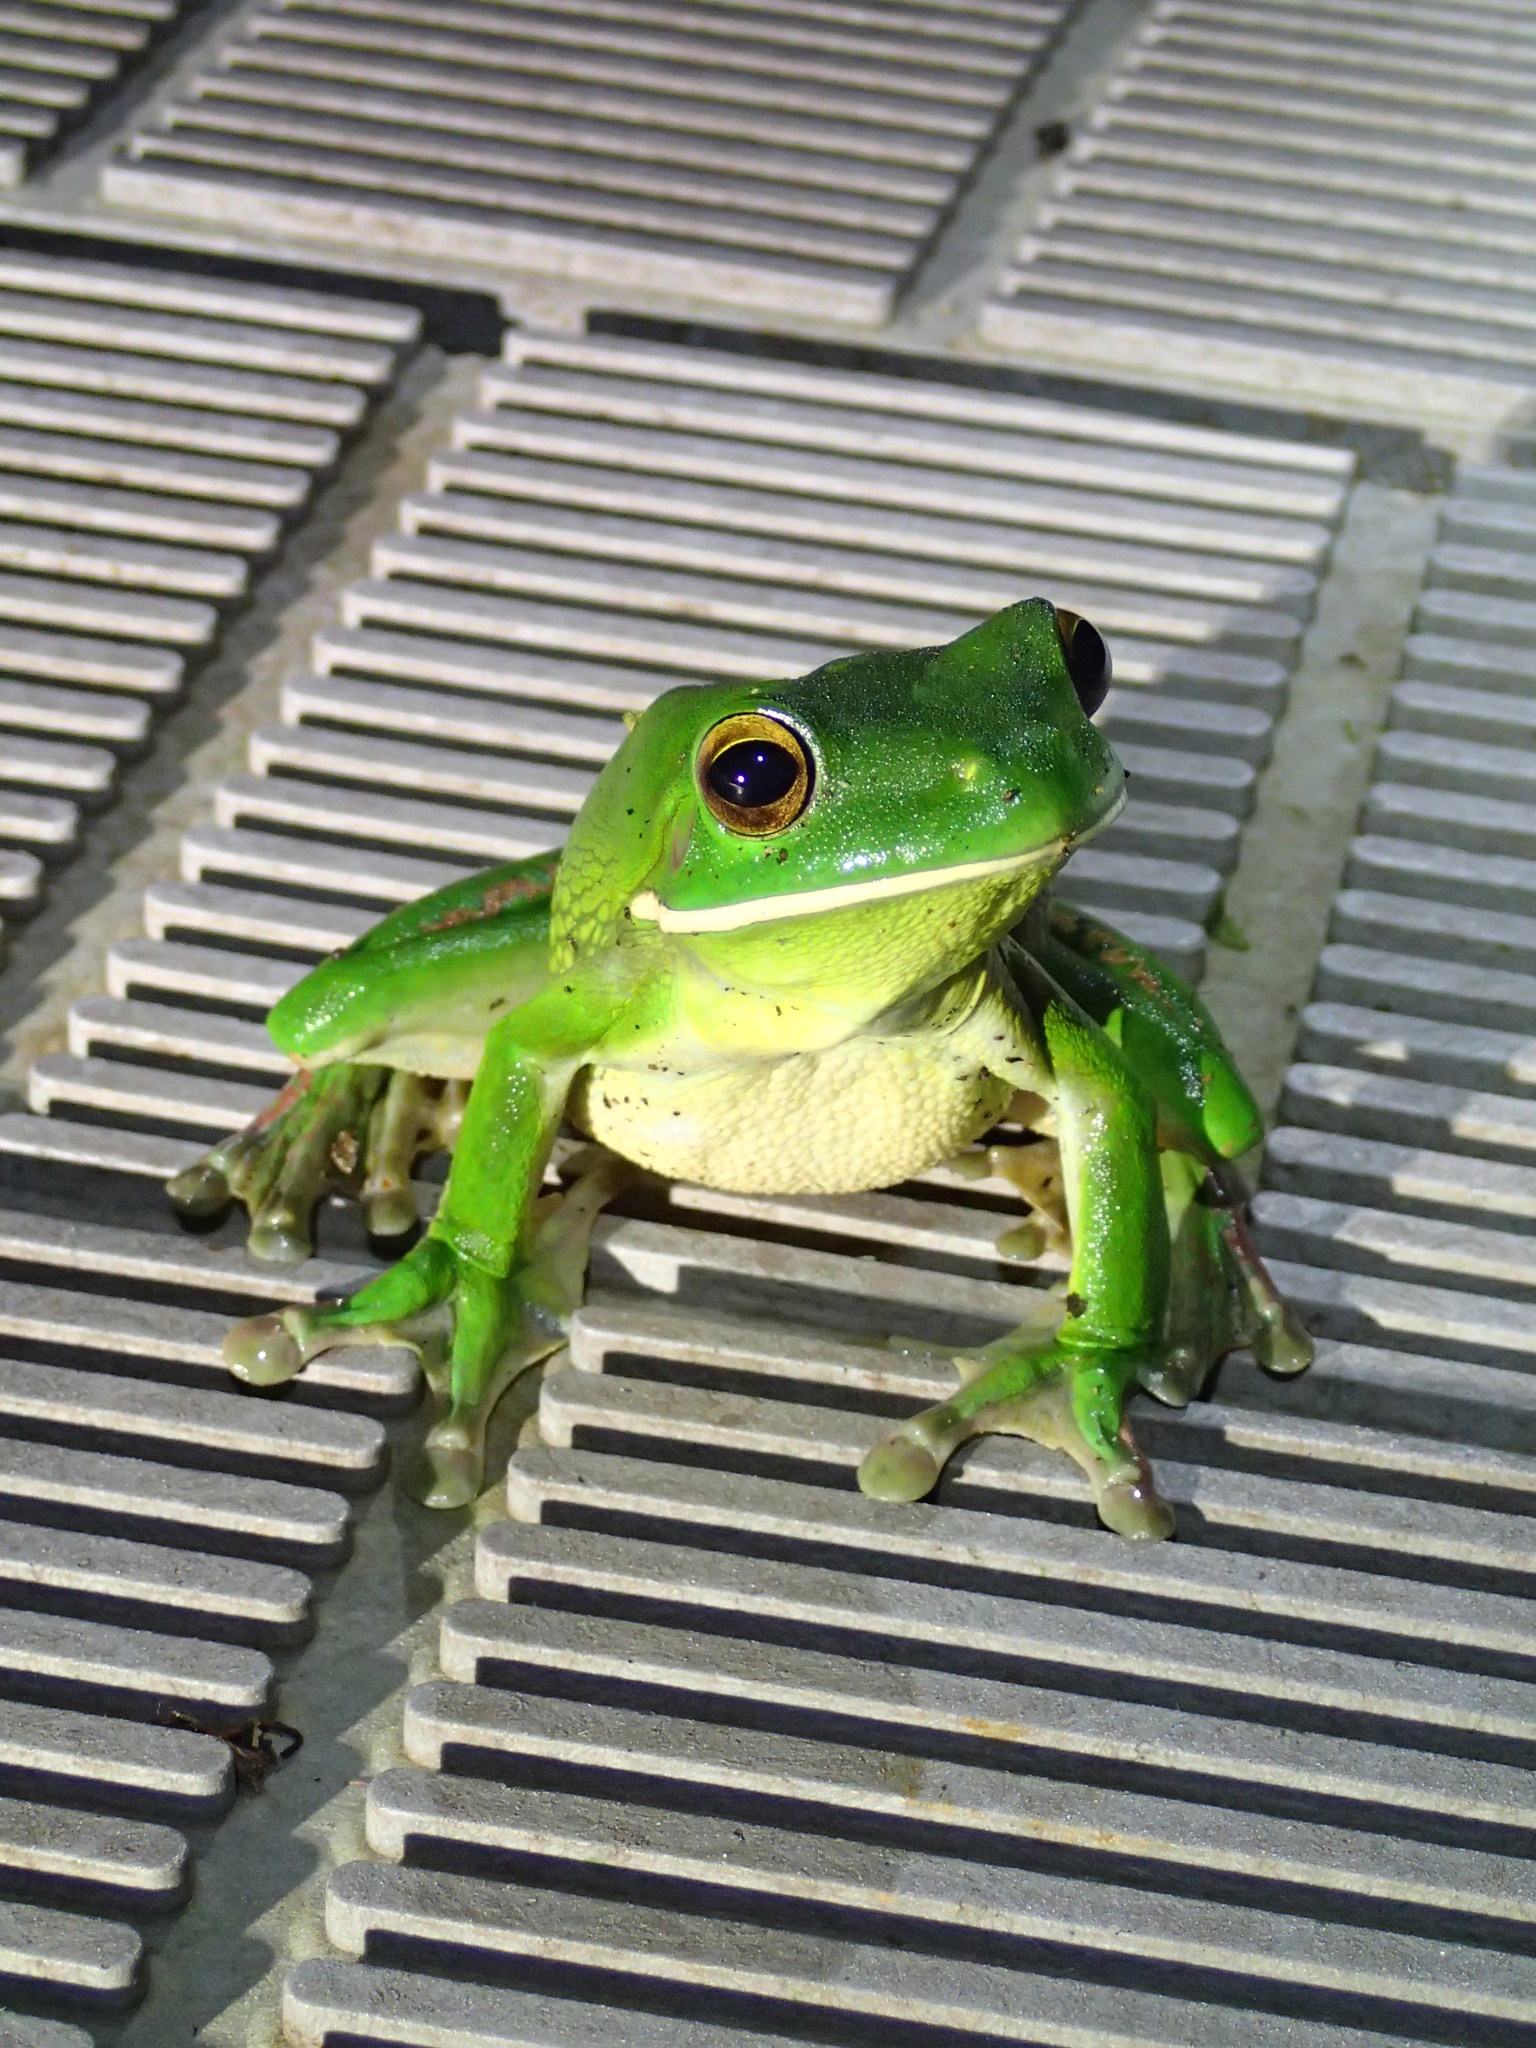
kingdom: Animalia
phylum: Chordata
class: Amphibia
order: Anura
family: Pelodryadidae
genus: Nyctimystes
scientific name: Nyctimystes infrafrenatus
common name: Australian giant treefrog
